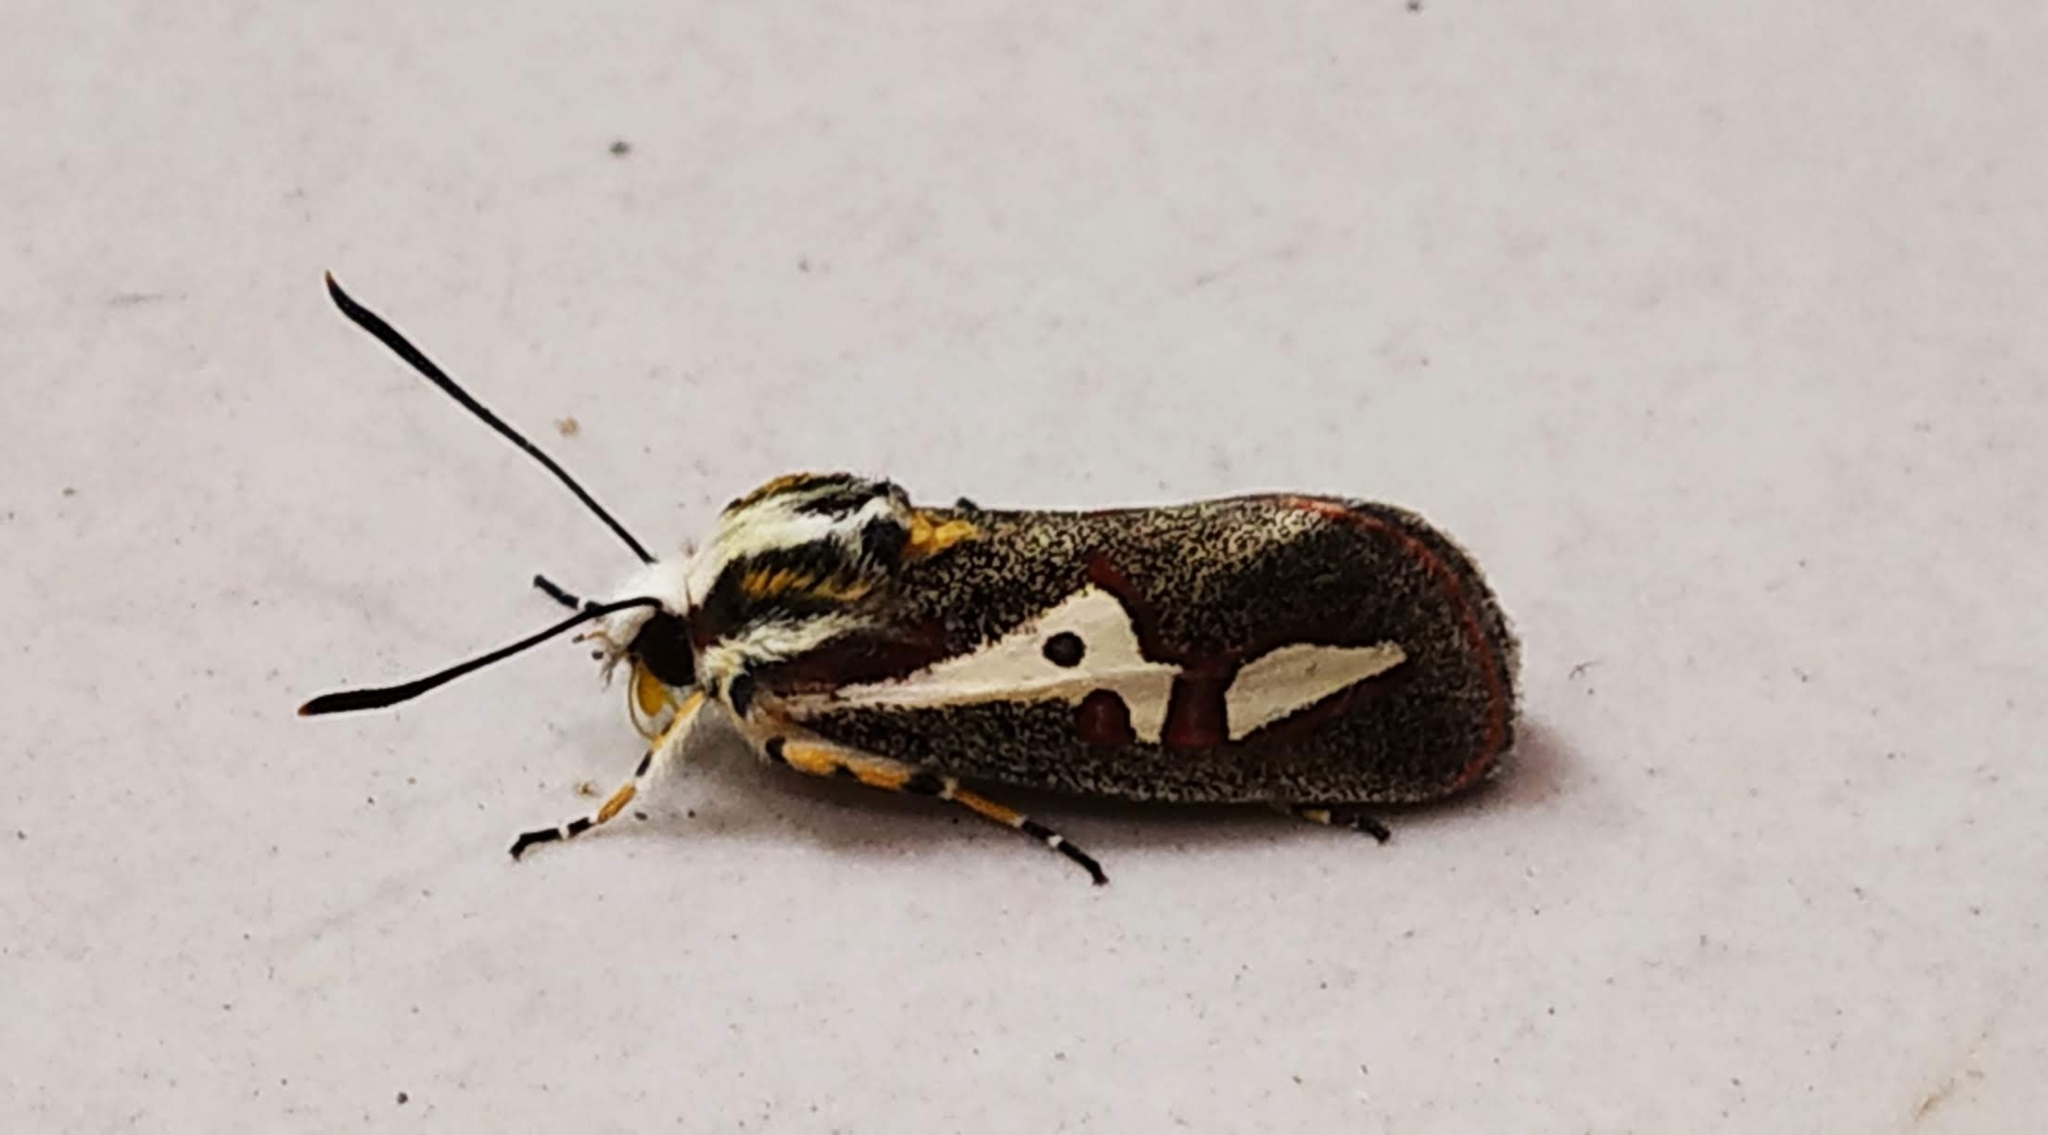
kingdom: Animalia
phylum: Arthropoda
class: Insecta
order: Lepidoptera
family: Noctuidae
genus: Aegocera
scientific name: Aegocera venulia
